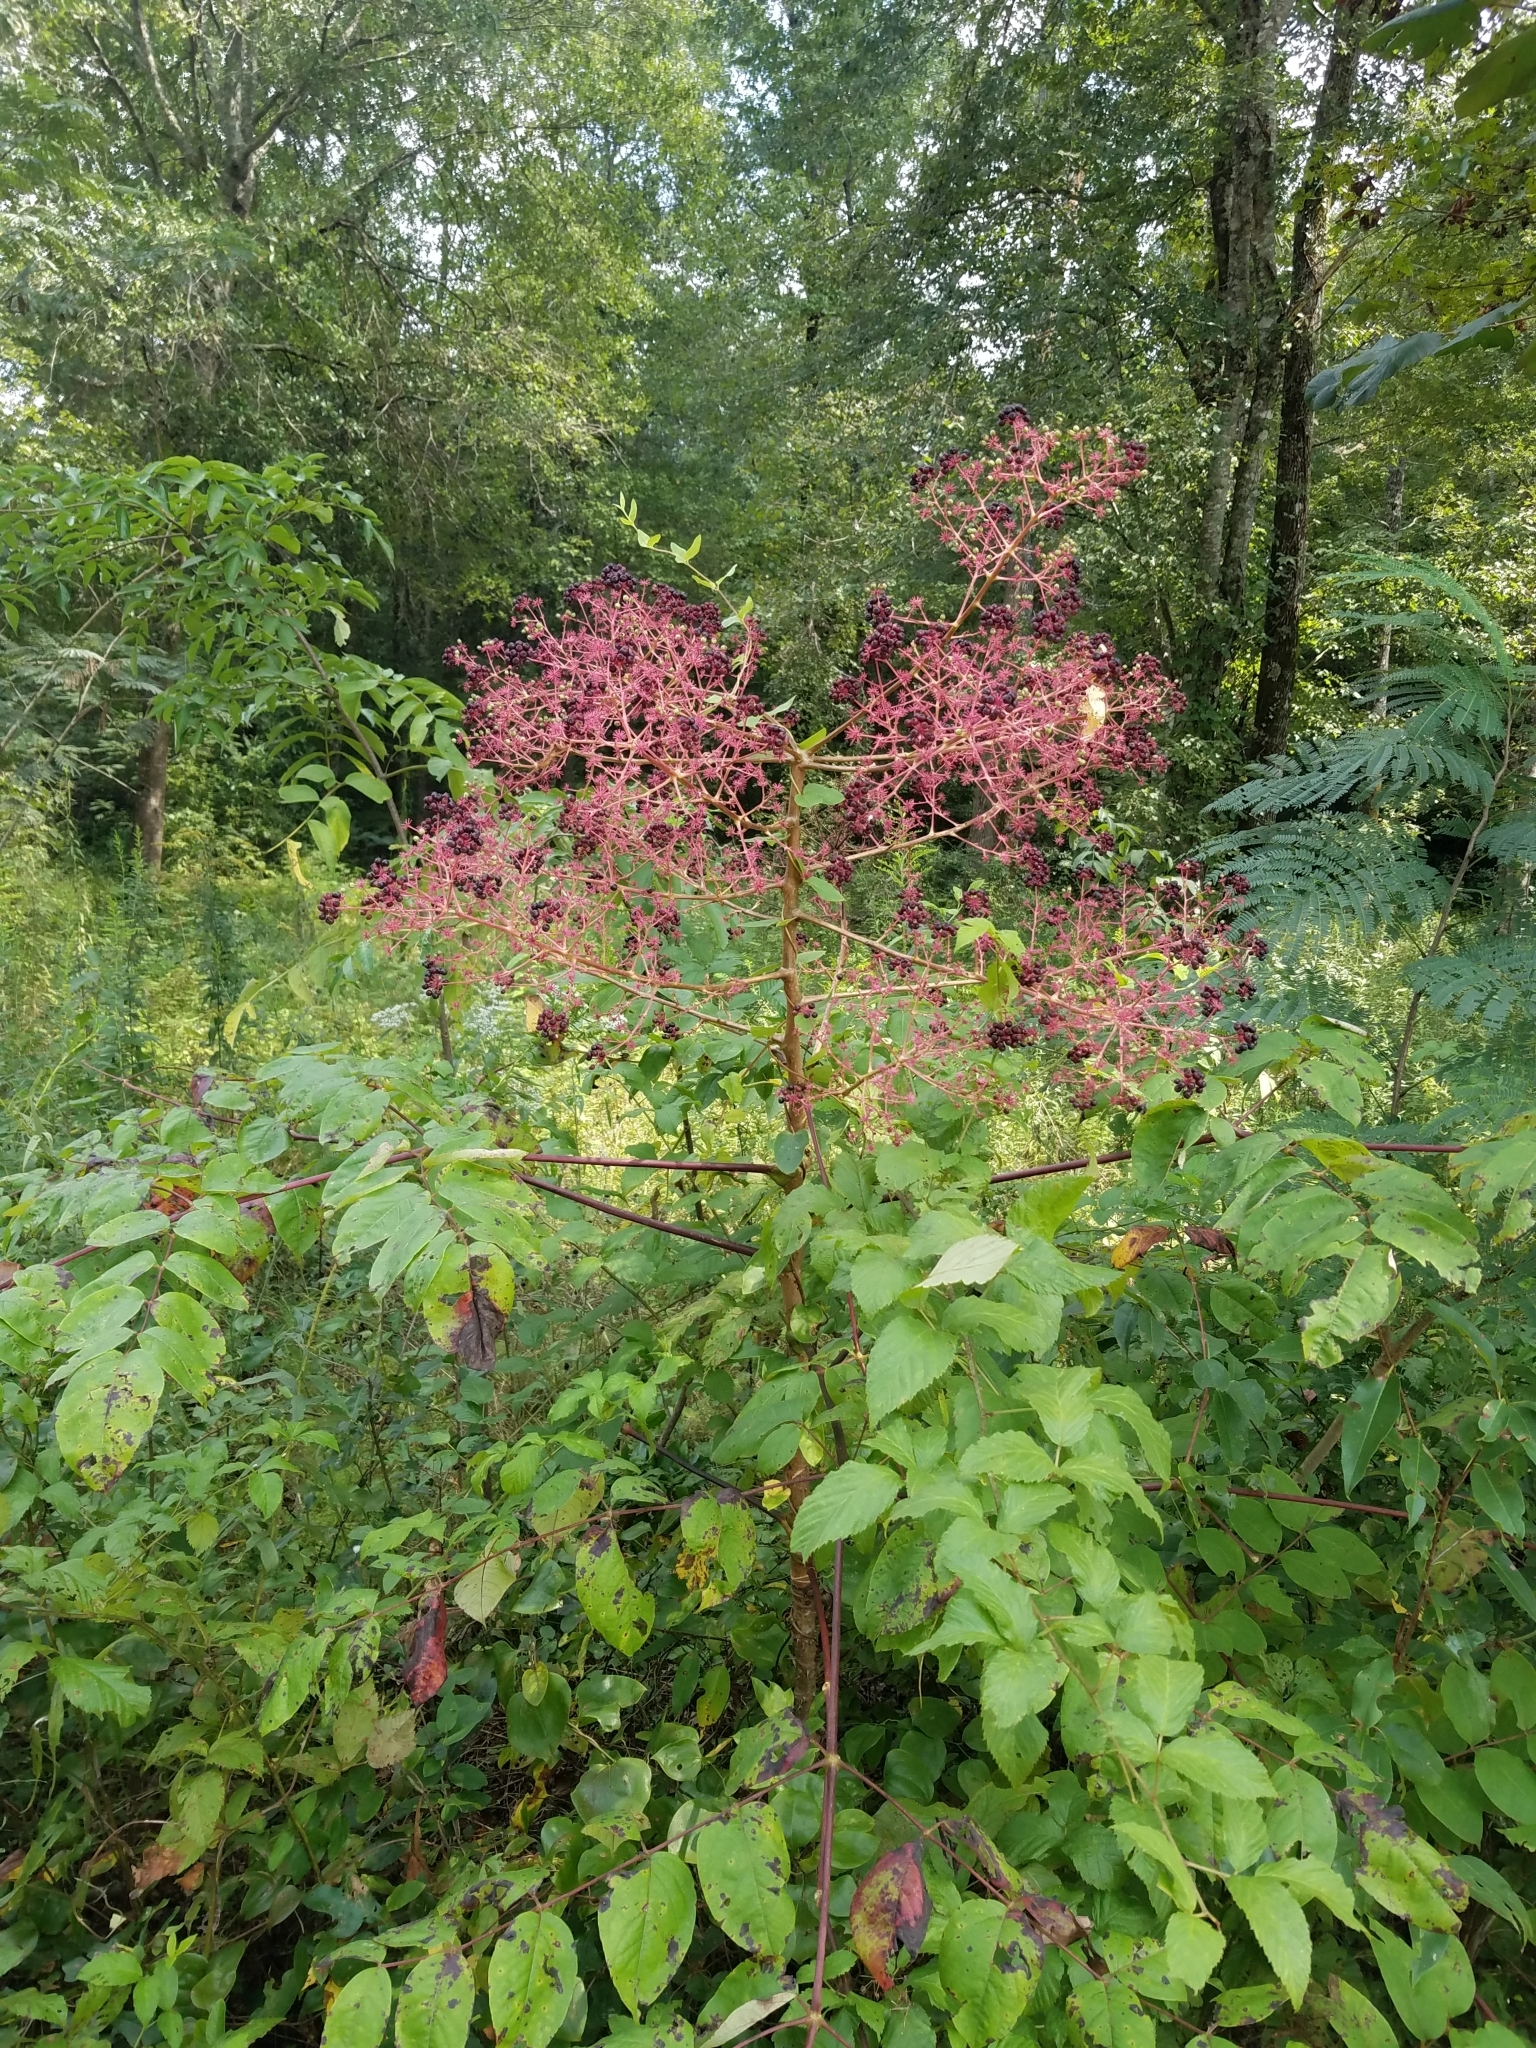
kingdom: Plantae
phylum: Tracheophyta
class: Magnoliopsida
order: Apiales
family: Araliaceae
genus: Aralia
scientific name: Aralia spinosa
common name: Hercules'-club
